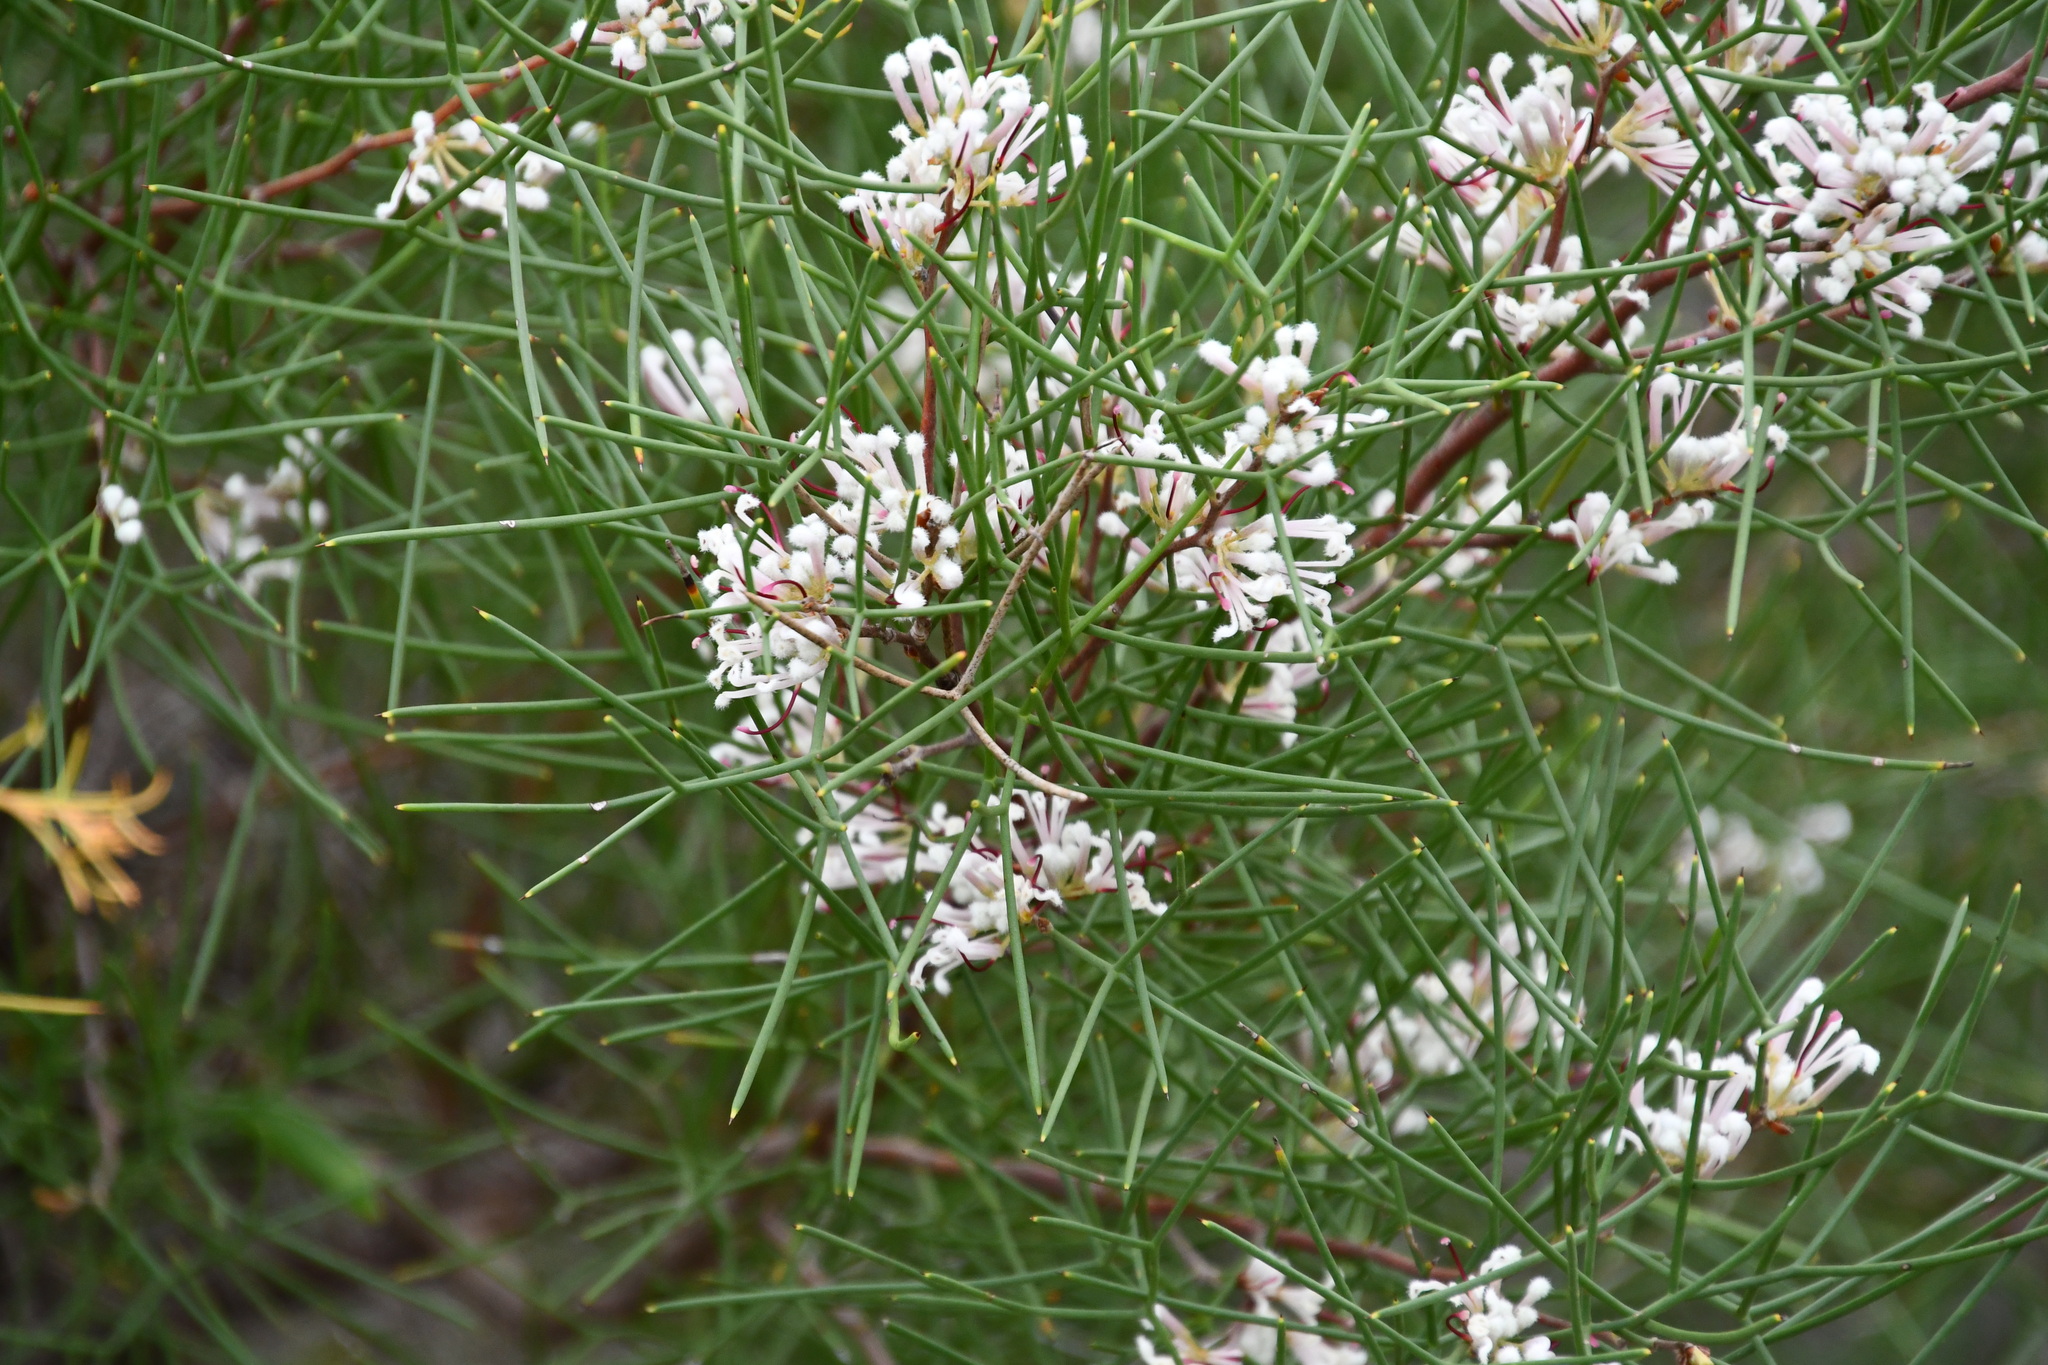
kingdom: Plantae
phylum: Tracheophyta
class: Magnoliopsida
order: Proteales
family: Proteaceae
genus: Hakea
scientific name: Hakea trifurcata
